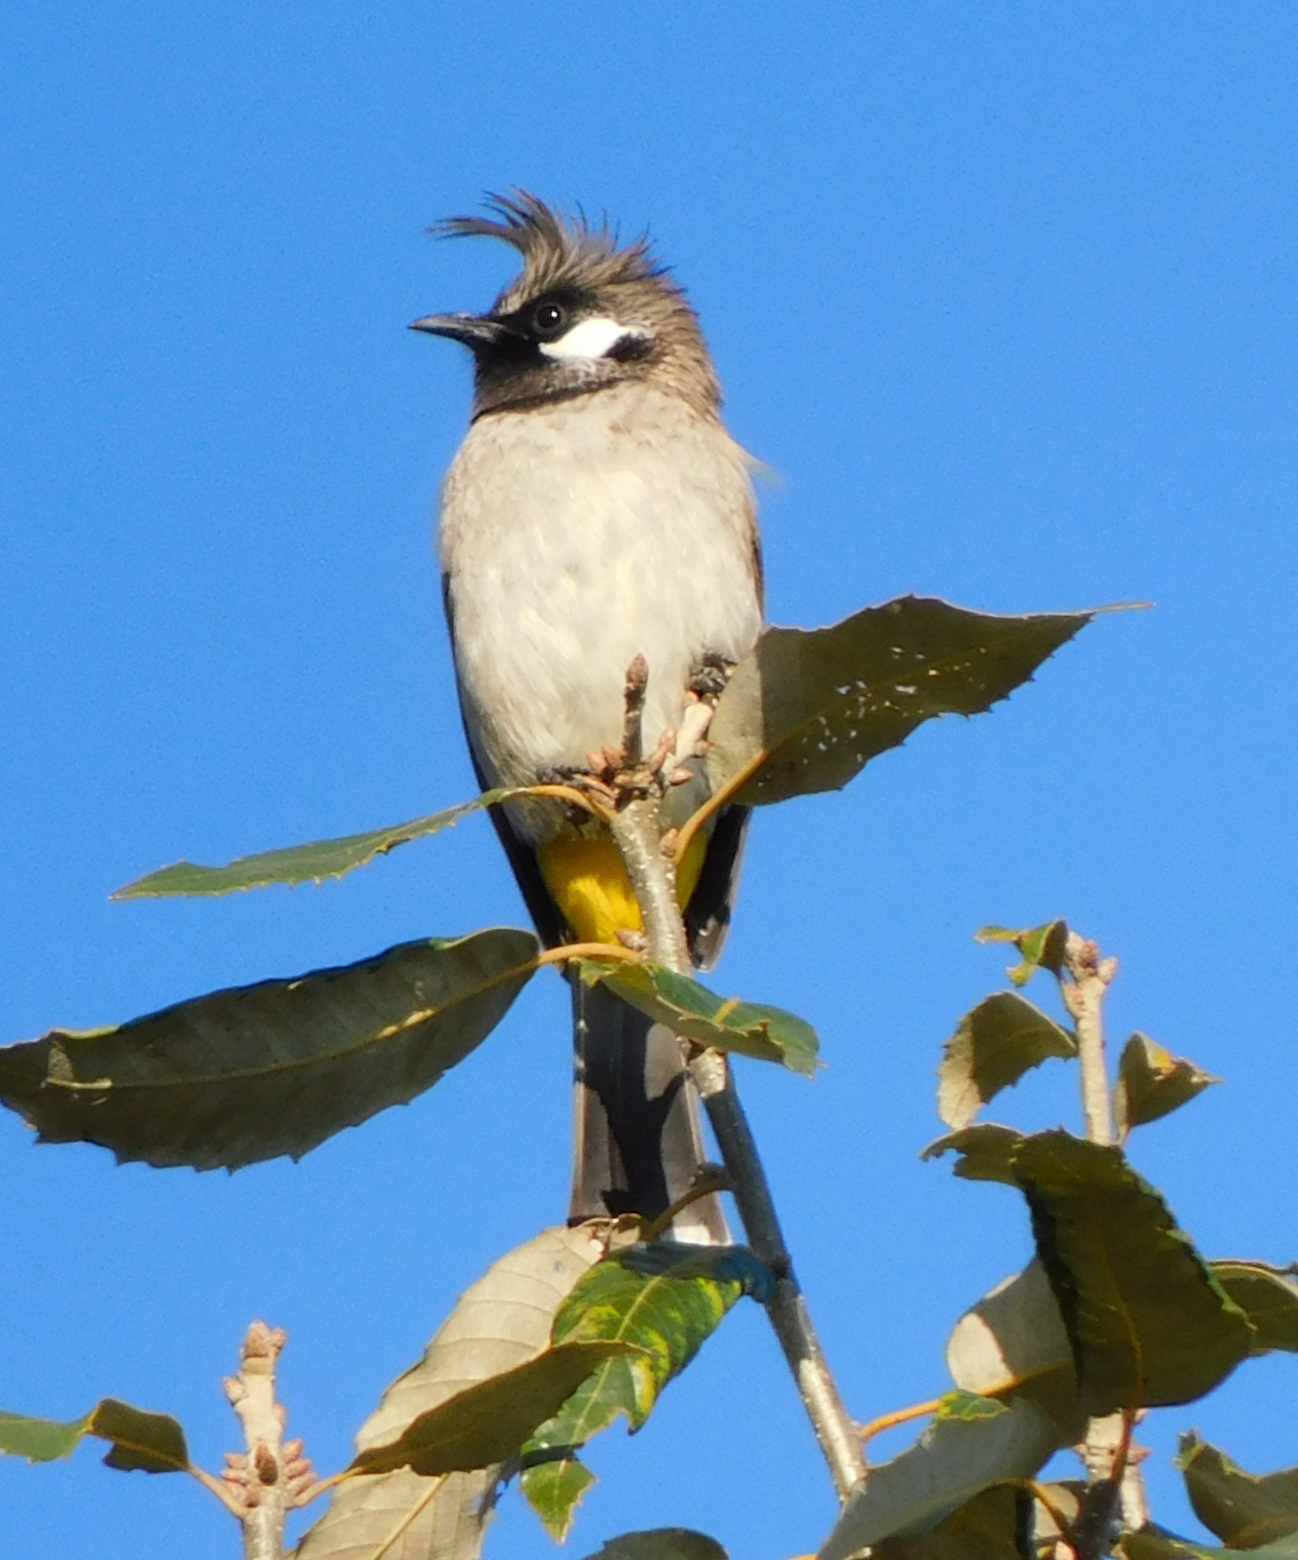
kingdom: Animalia
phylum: Chordata
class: Aves
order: Passeriformes
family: Pycnonotidae
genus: Pycnonotus
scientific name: Pycnonotus leucogenys
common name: Himalayan bulbul
